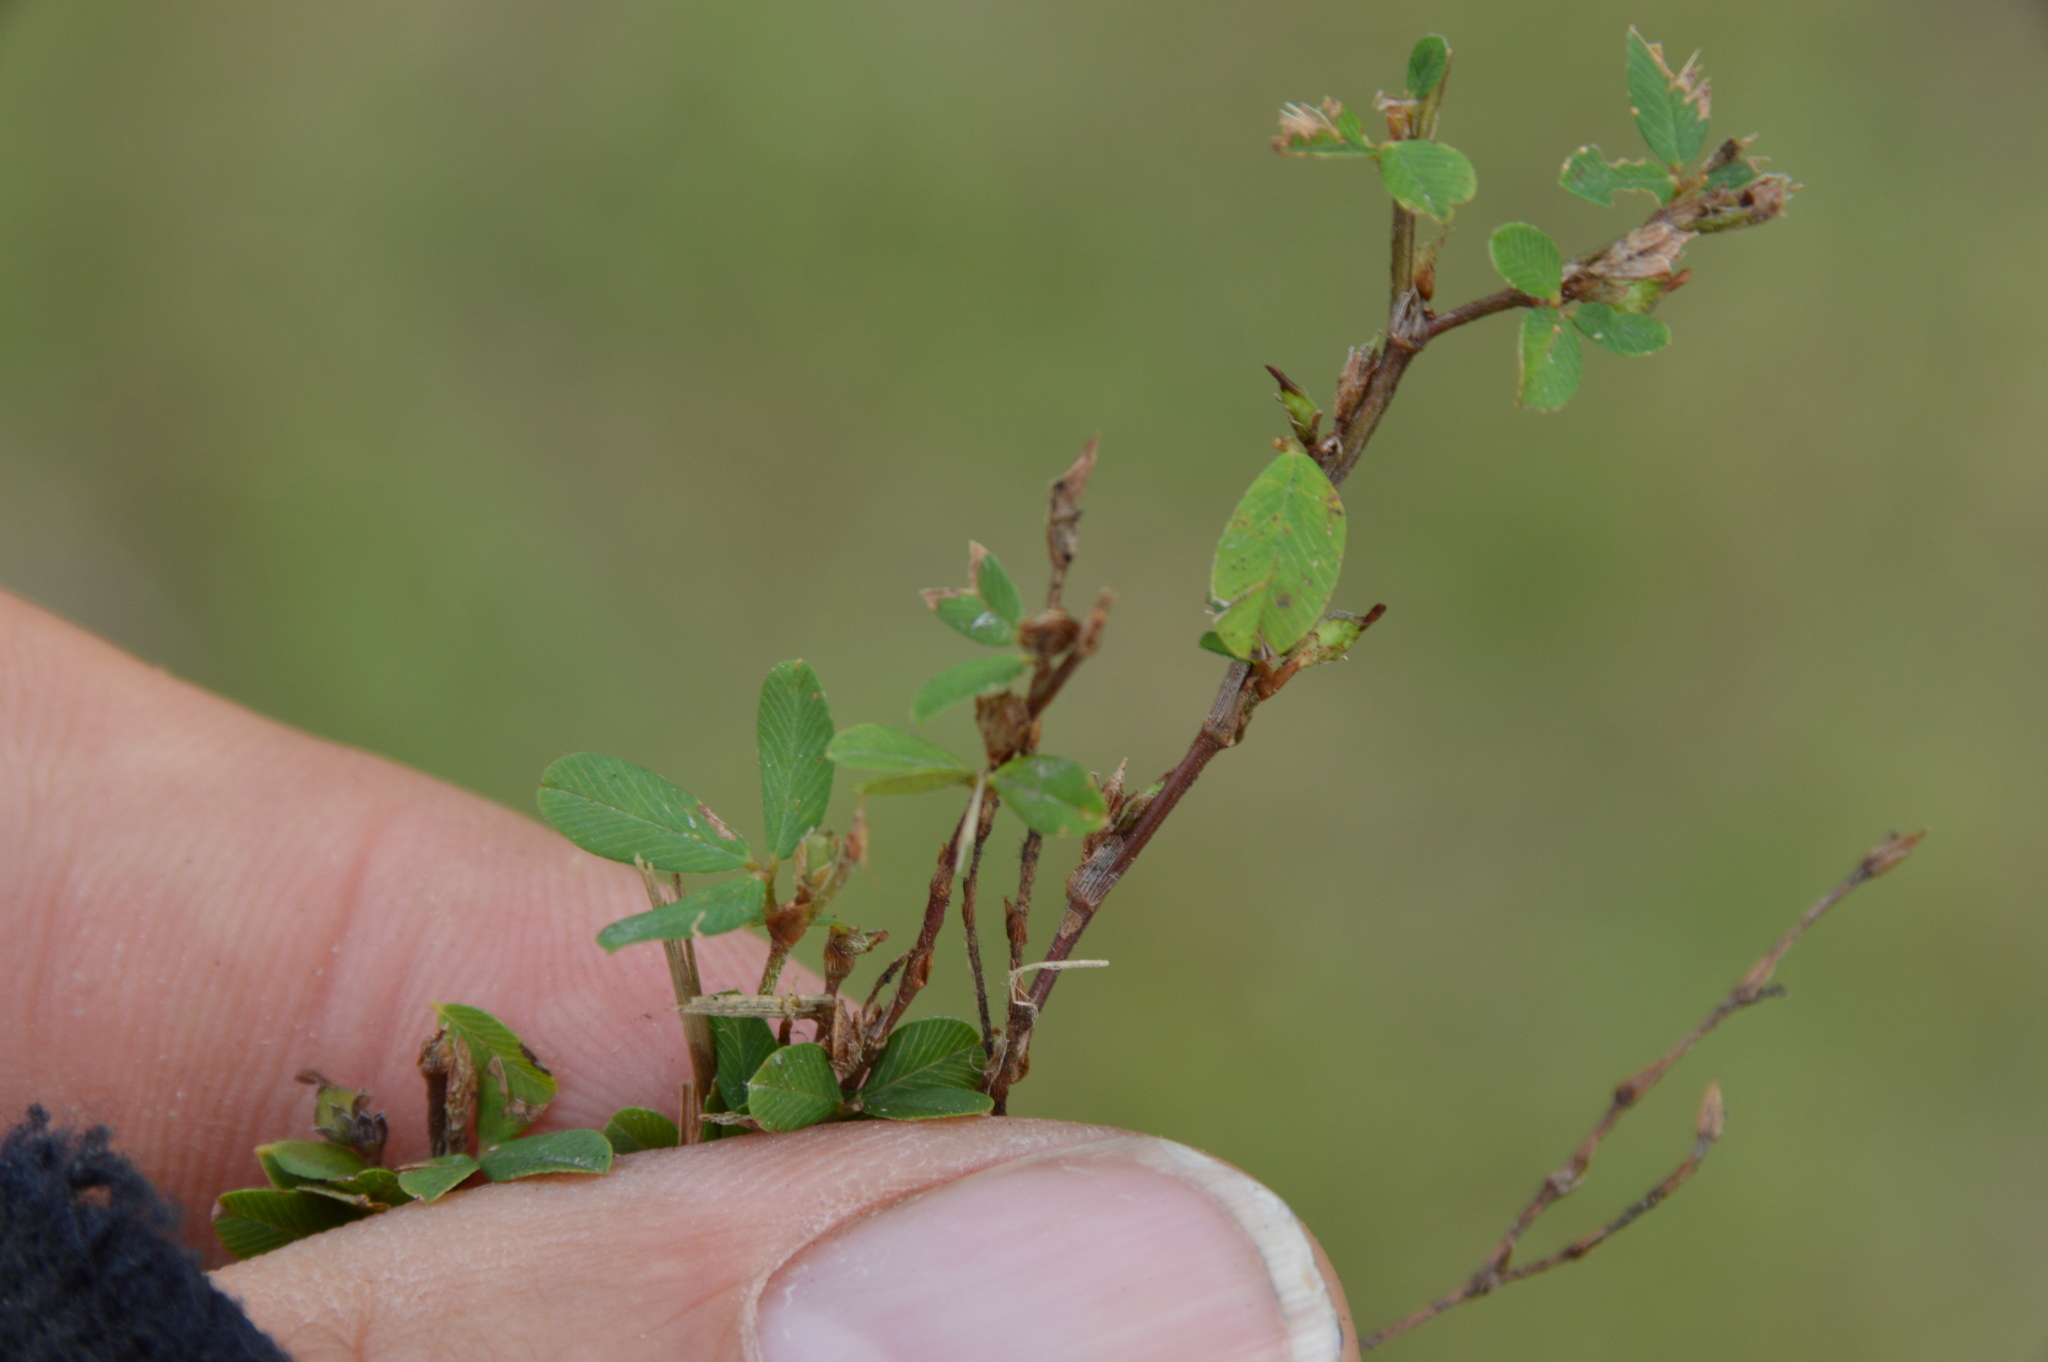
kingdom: Plantae
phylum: Tracheophyta
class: Magnoliopsida
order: Fabales
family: Fabaceae
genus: Kummerowia
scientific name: Kummerowia striata
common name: Japanese clover
